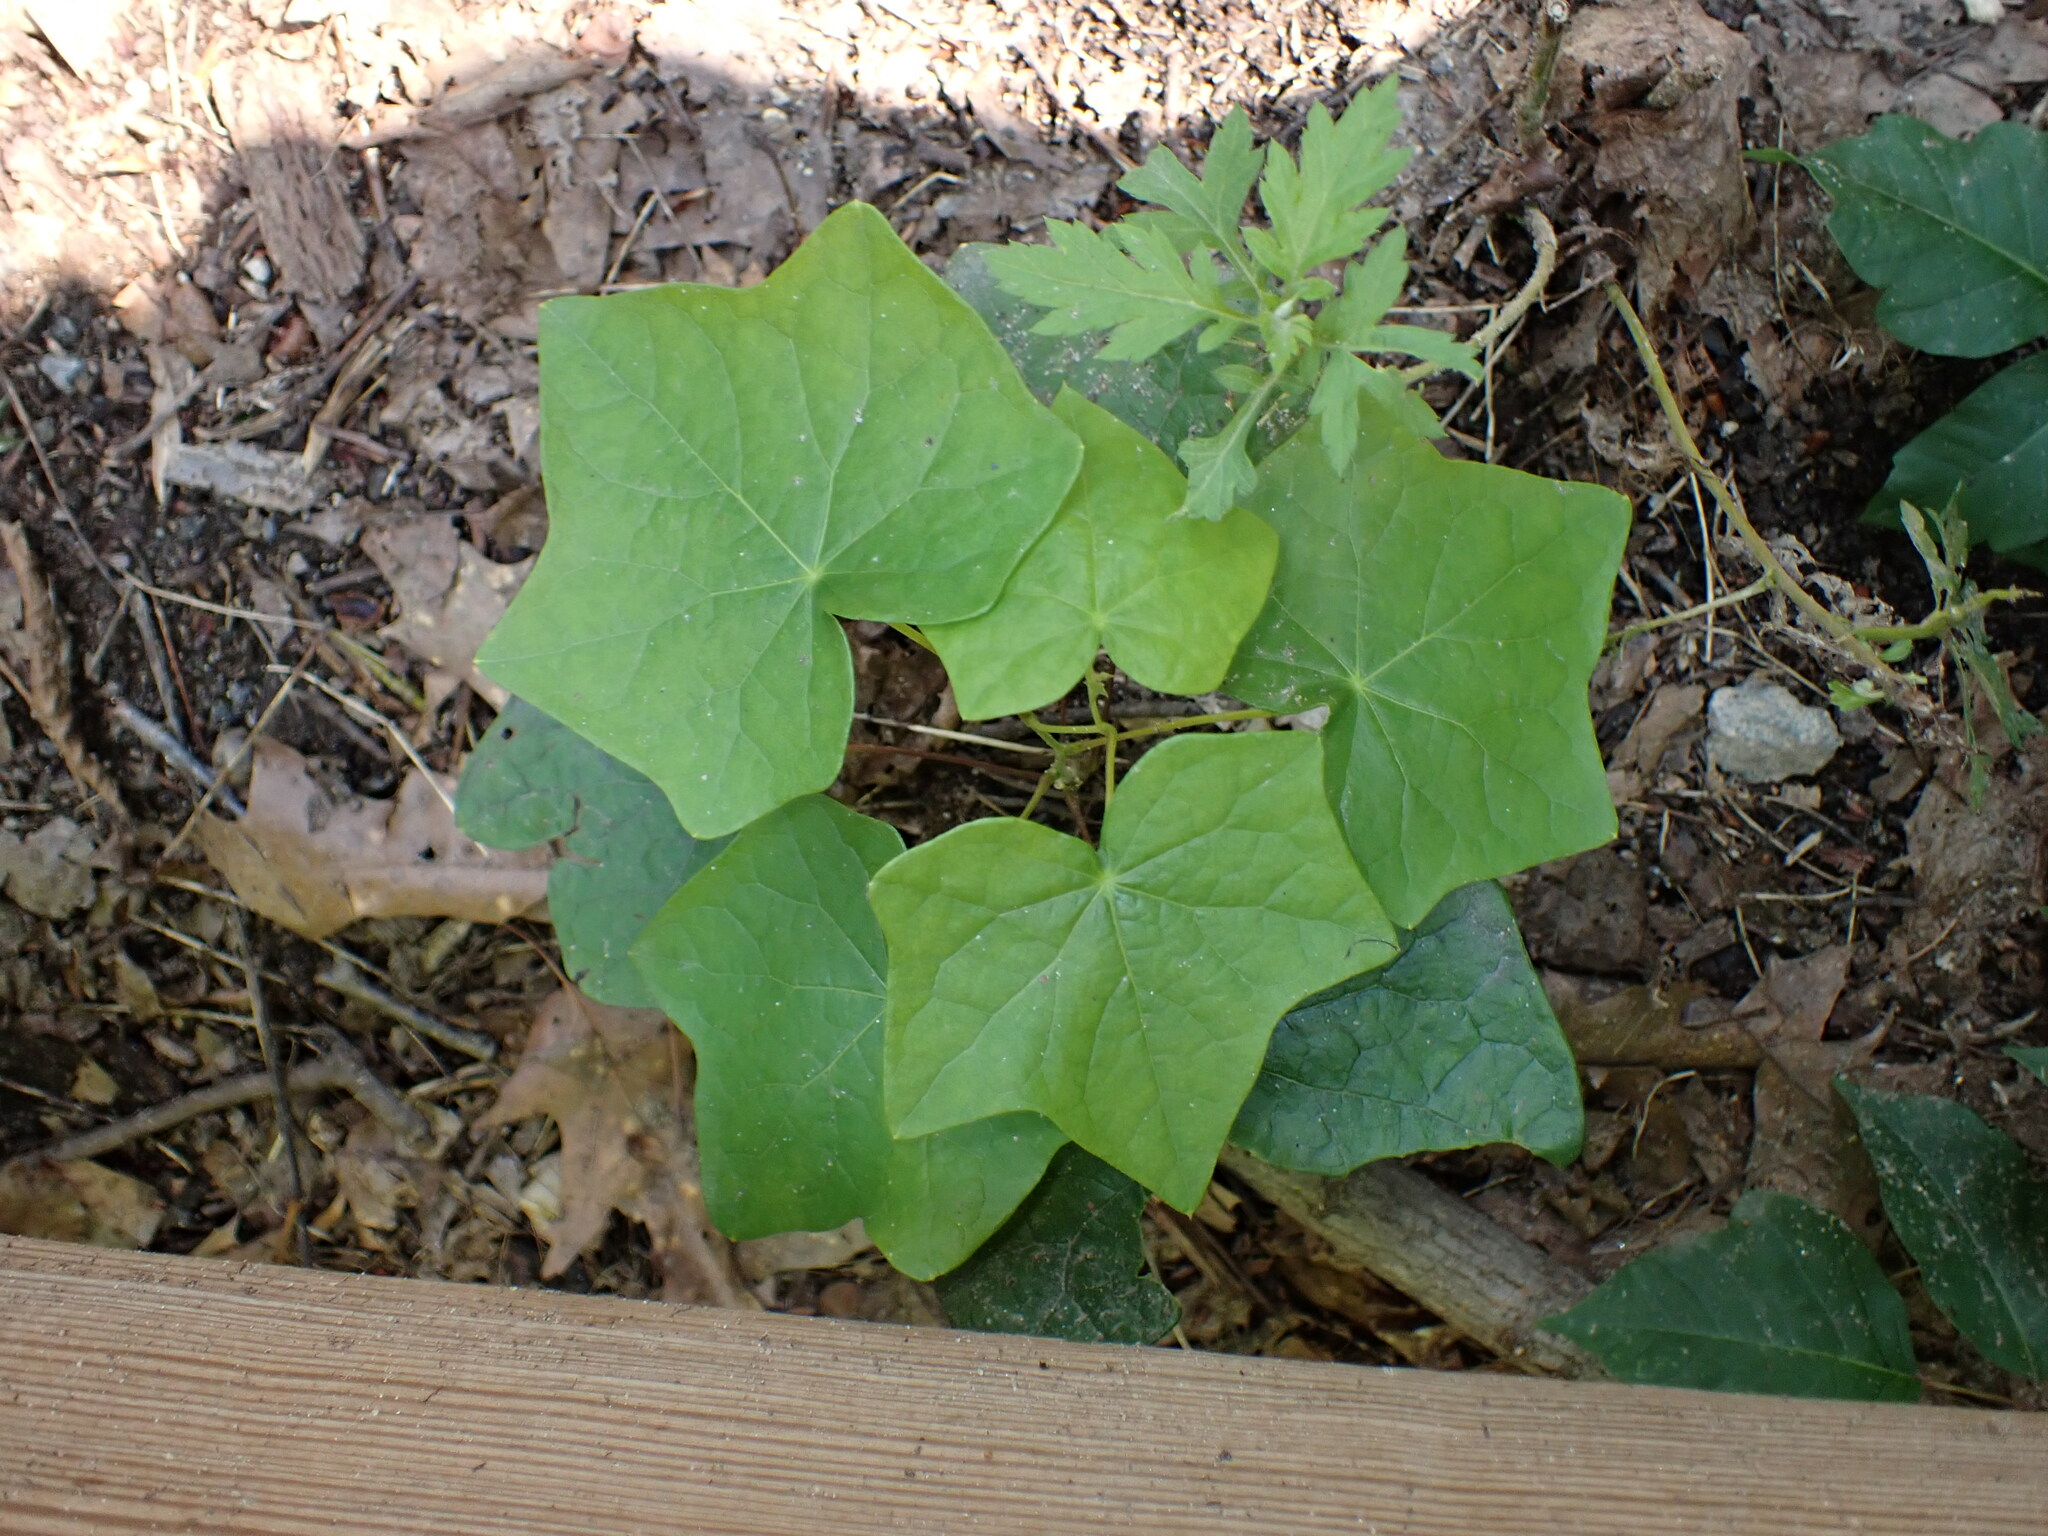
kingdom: Plantae
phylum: Tracheophyta
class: Magnoliopsida
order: Ranunculales
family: Menispermaceae
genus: Menispermum
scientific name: Menispermum canadense
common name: Moonseed
